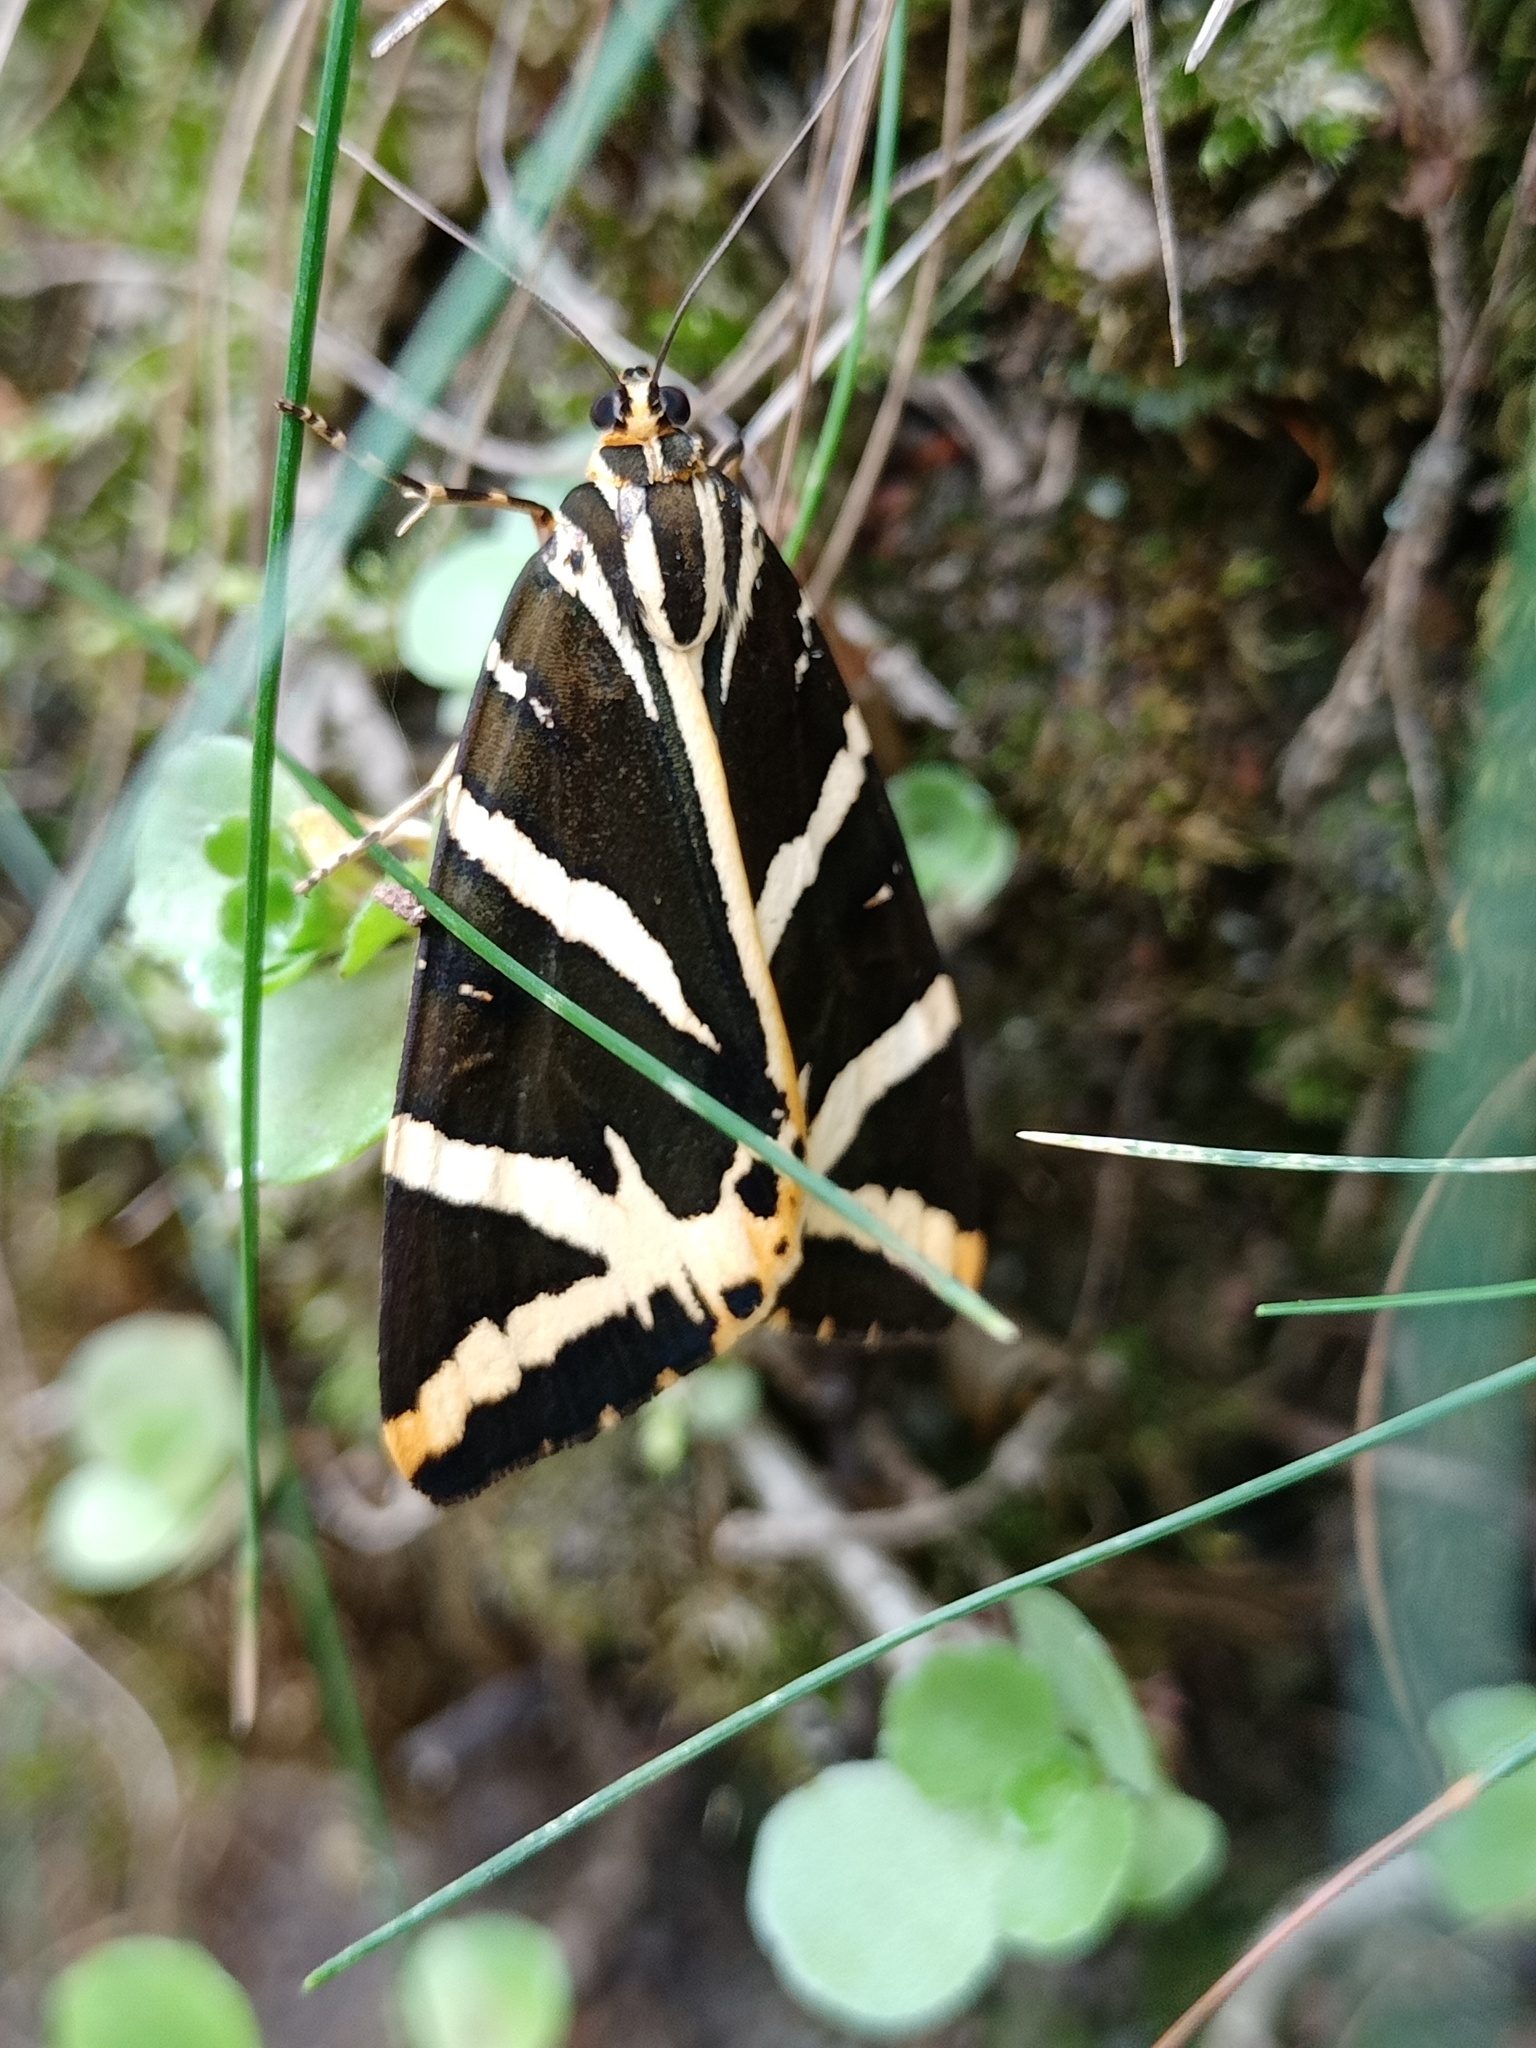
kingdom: Animalia
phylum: Arthropoda
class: Insecta
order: Lepidoptera
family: Erebidae
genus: Euplagia
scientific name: Euplagia quadripunctaria
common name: Jersey tiger
